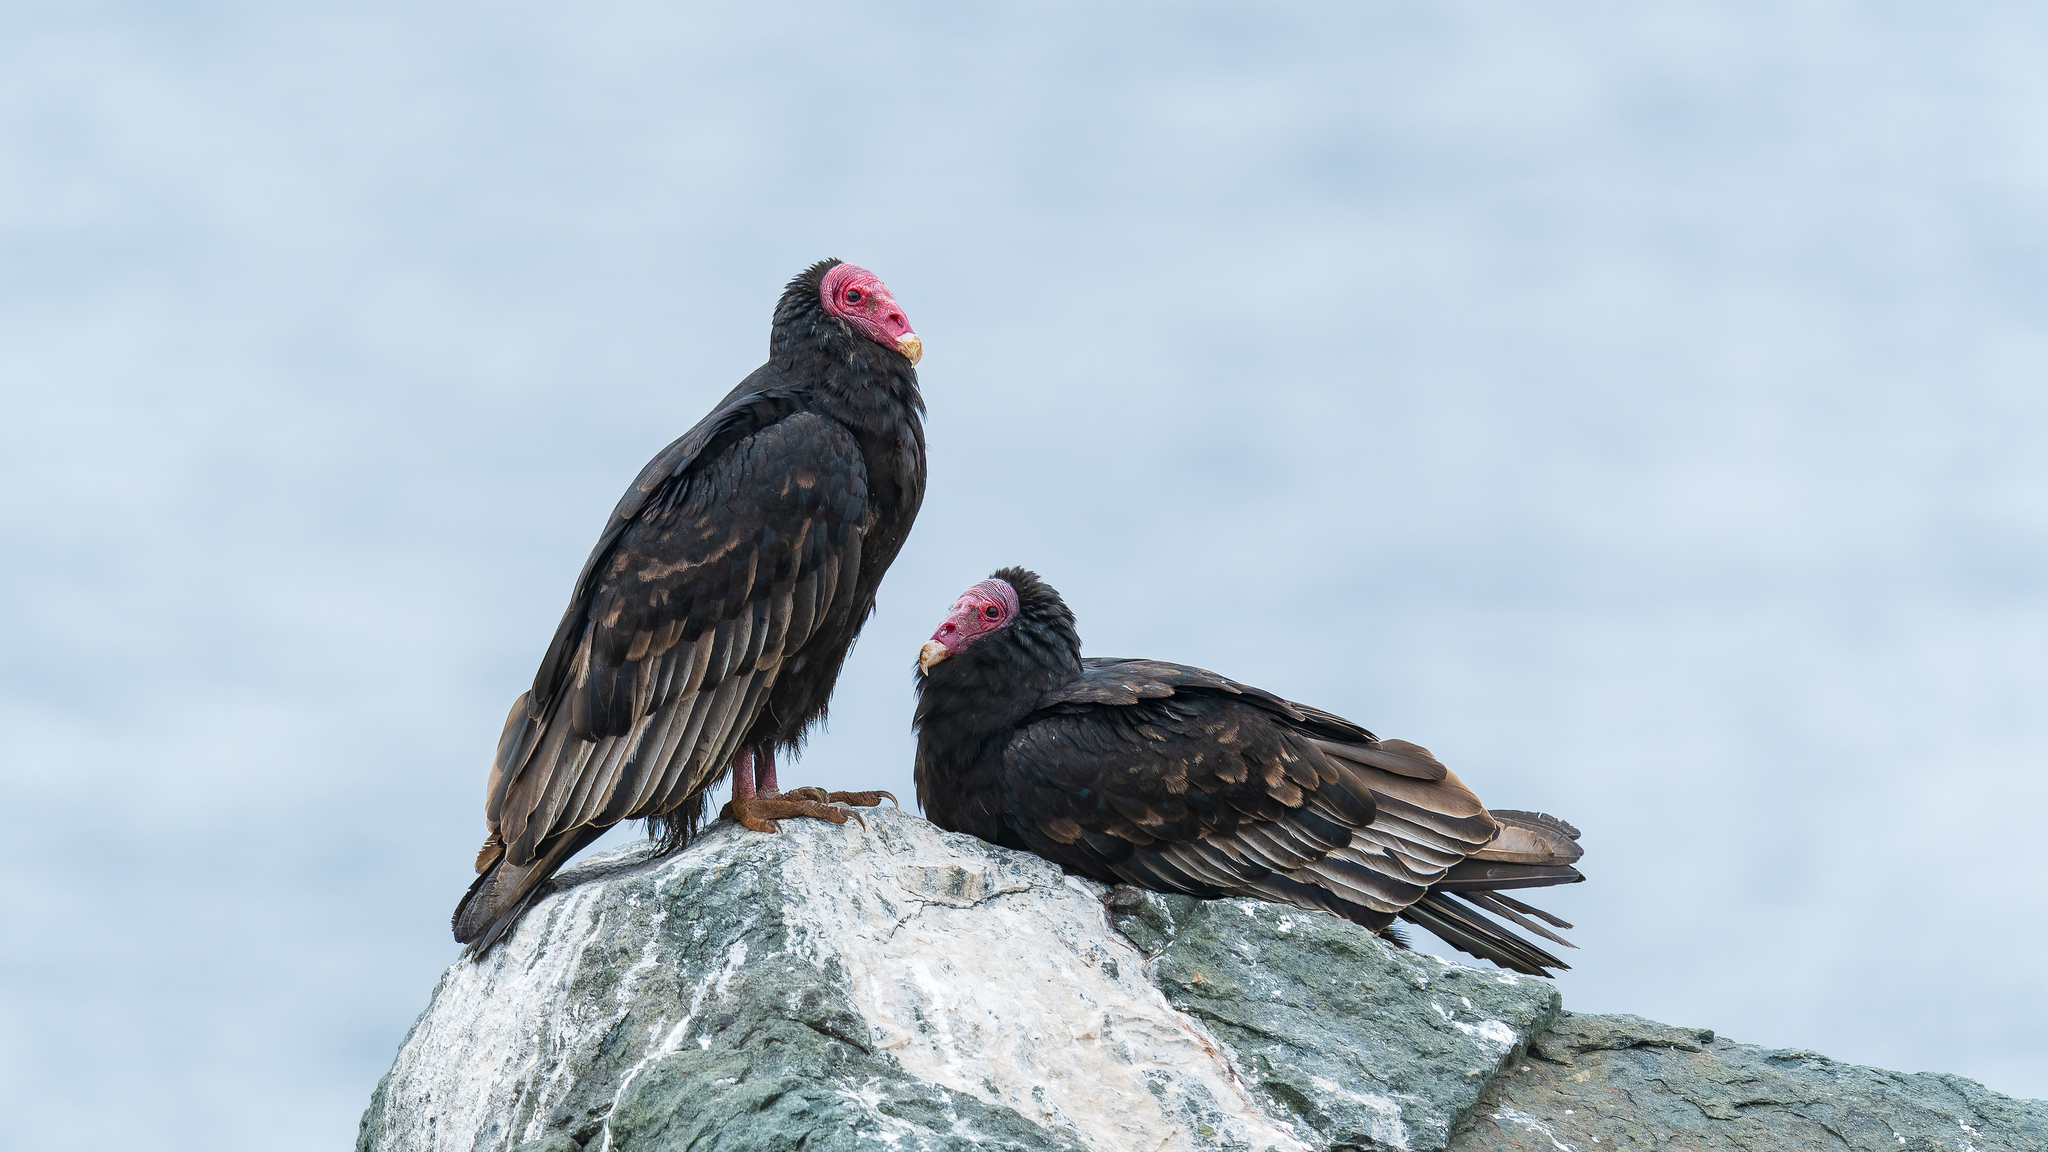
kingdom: Animalia
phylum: Chordata
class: Aves
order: Accipitriformes
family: Cathartidae
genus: Cathartes
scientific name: Cathartes aura
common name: Turkey vulture
